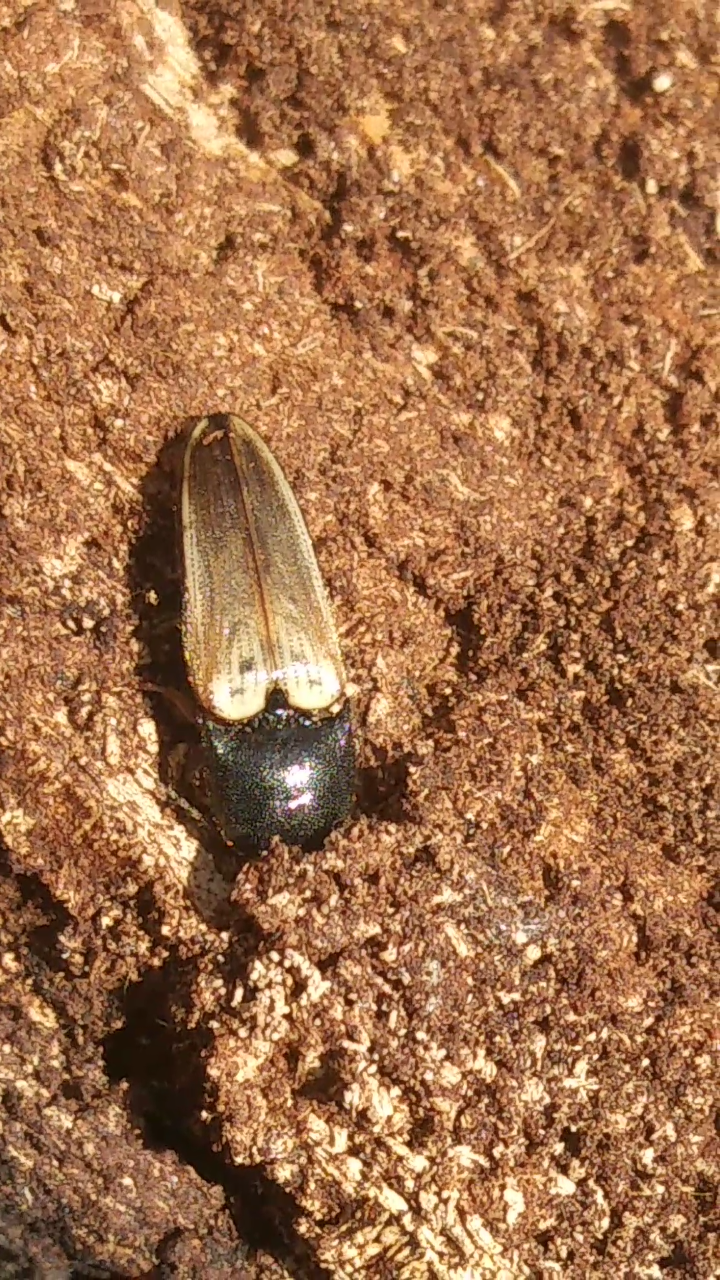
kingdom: Animalia
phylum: Arthropoda
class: Insecta
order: Coleoptera
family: Elateridae
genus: Ampedus
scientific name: Ampedus nigricollis
